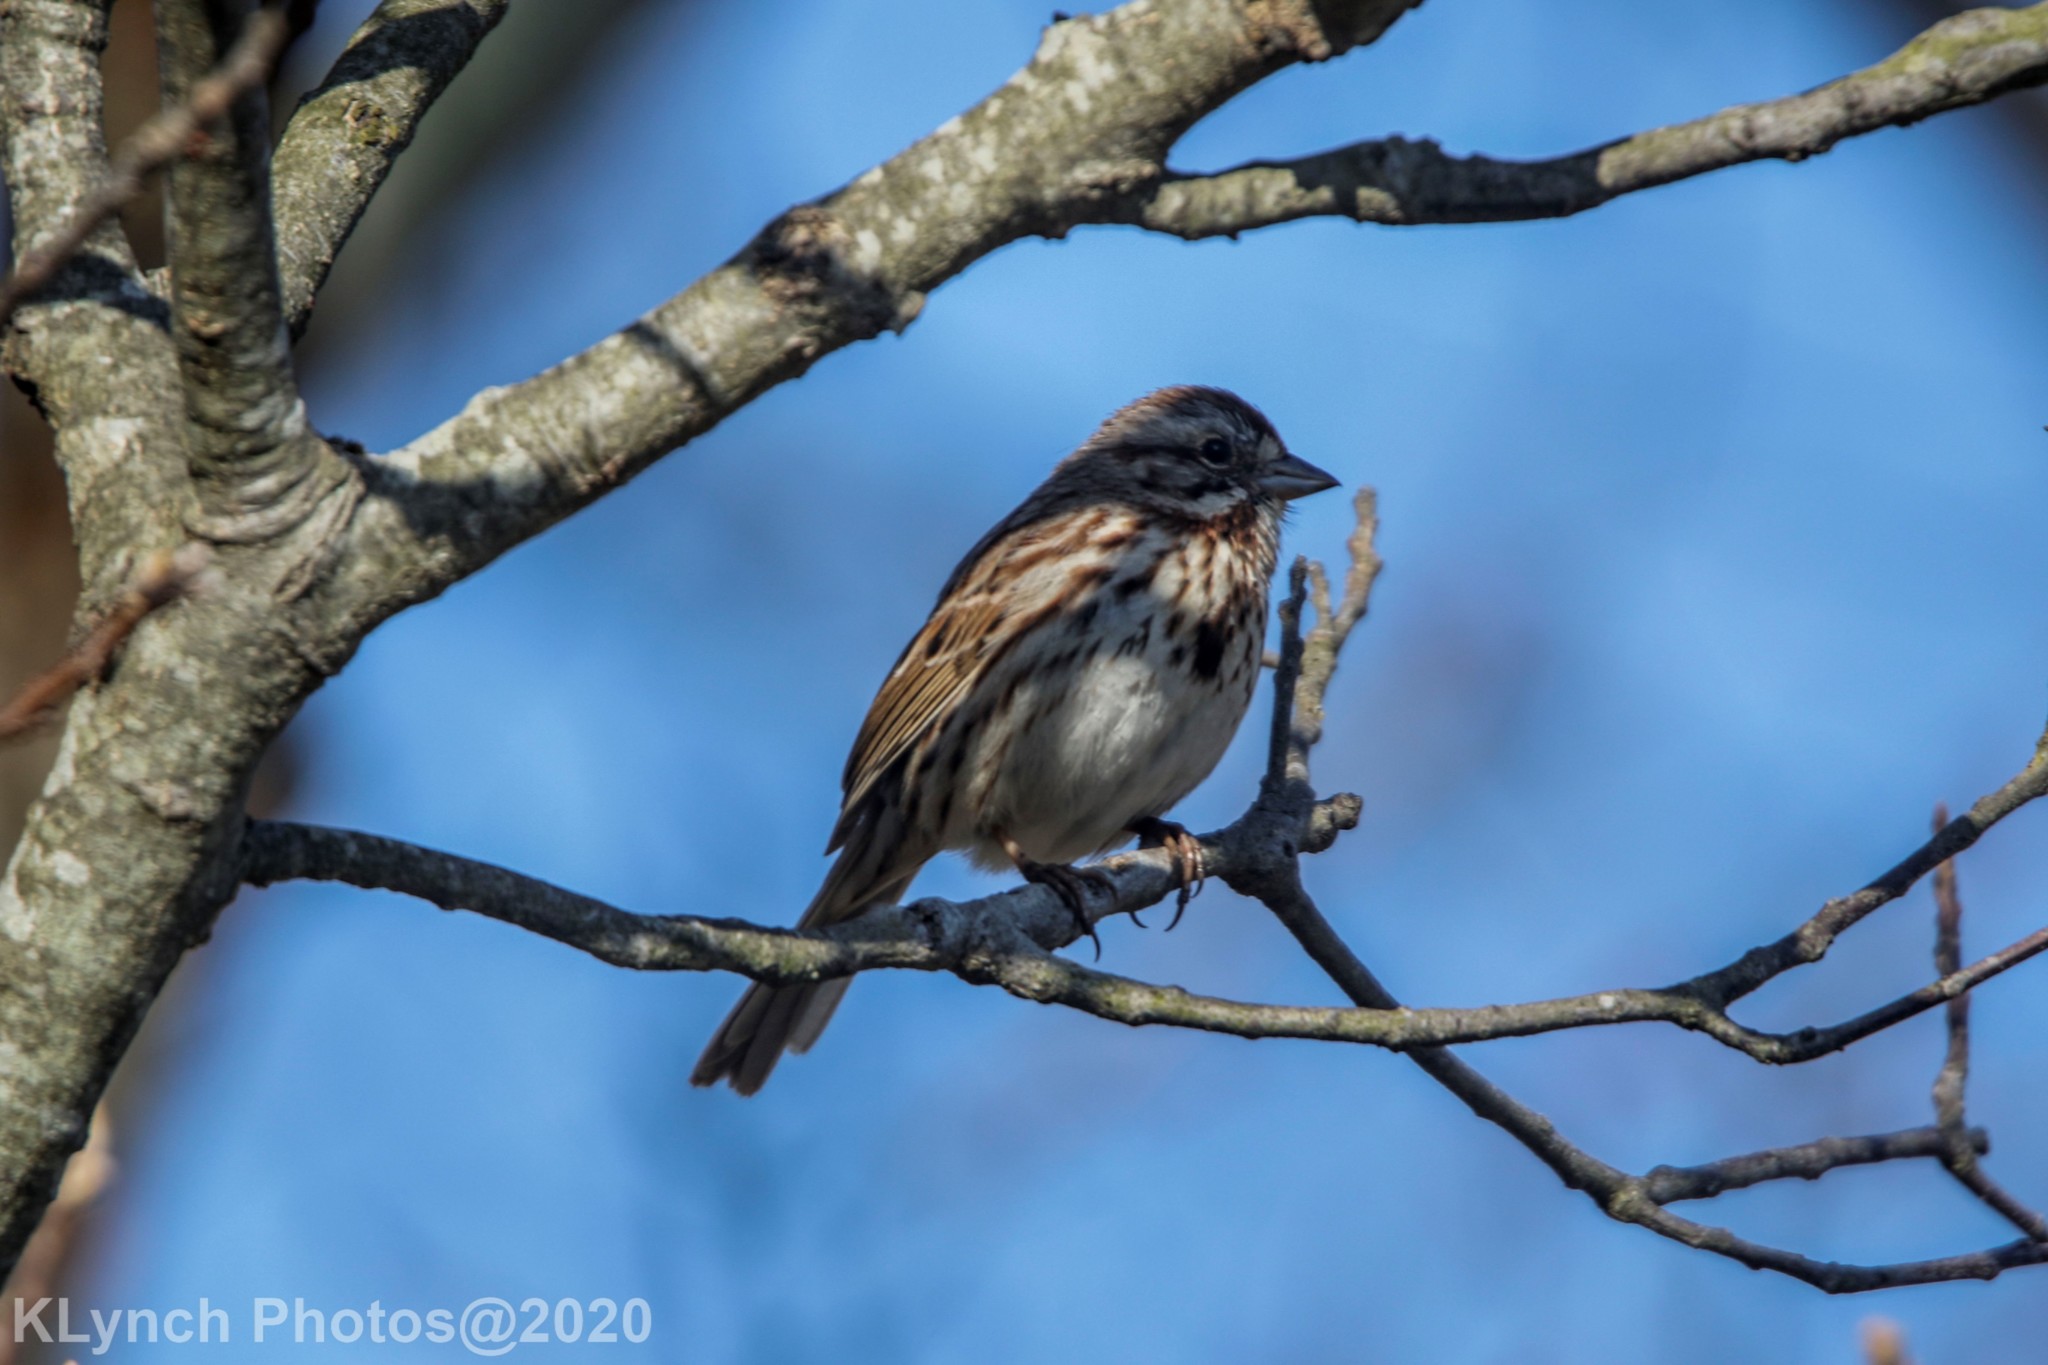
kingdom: Animalia
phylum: Chordata
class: Aves
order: Passeriformes
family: Passerellidae
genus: Melospiza
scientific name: Melospiza melodia
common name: Song sparrow
